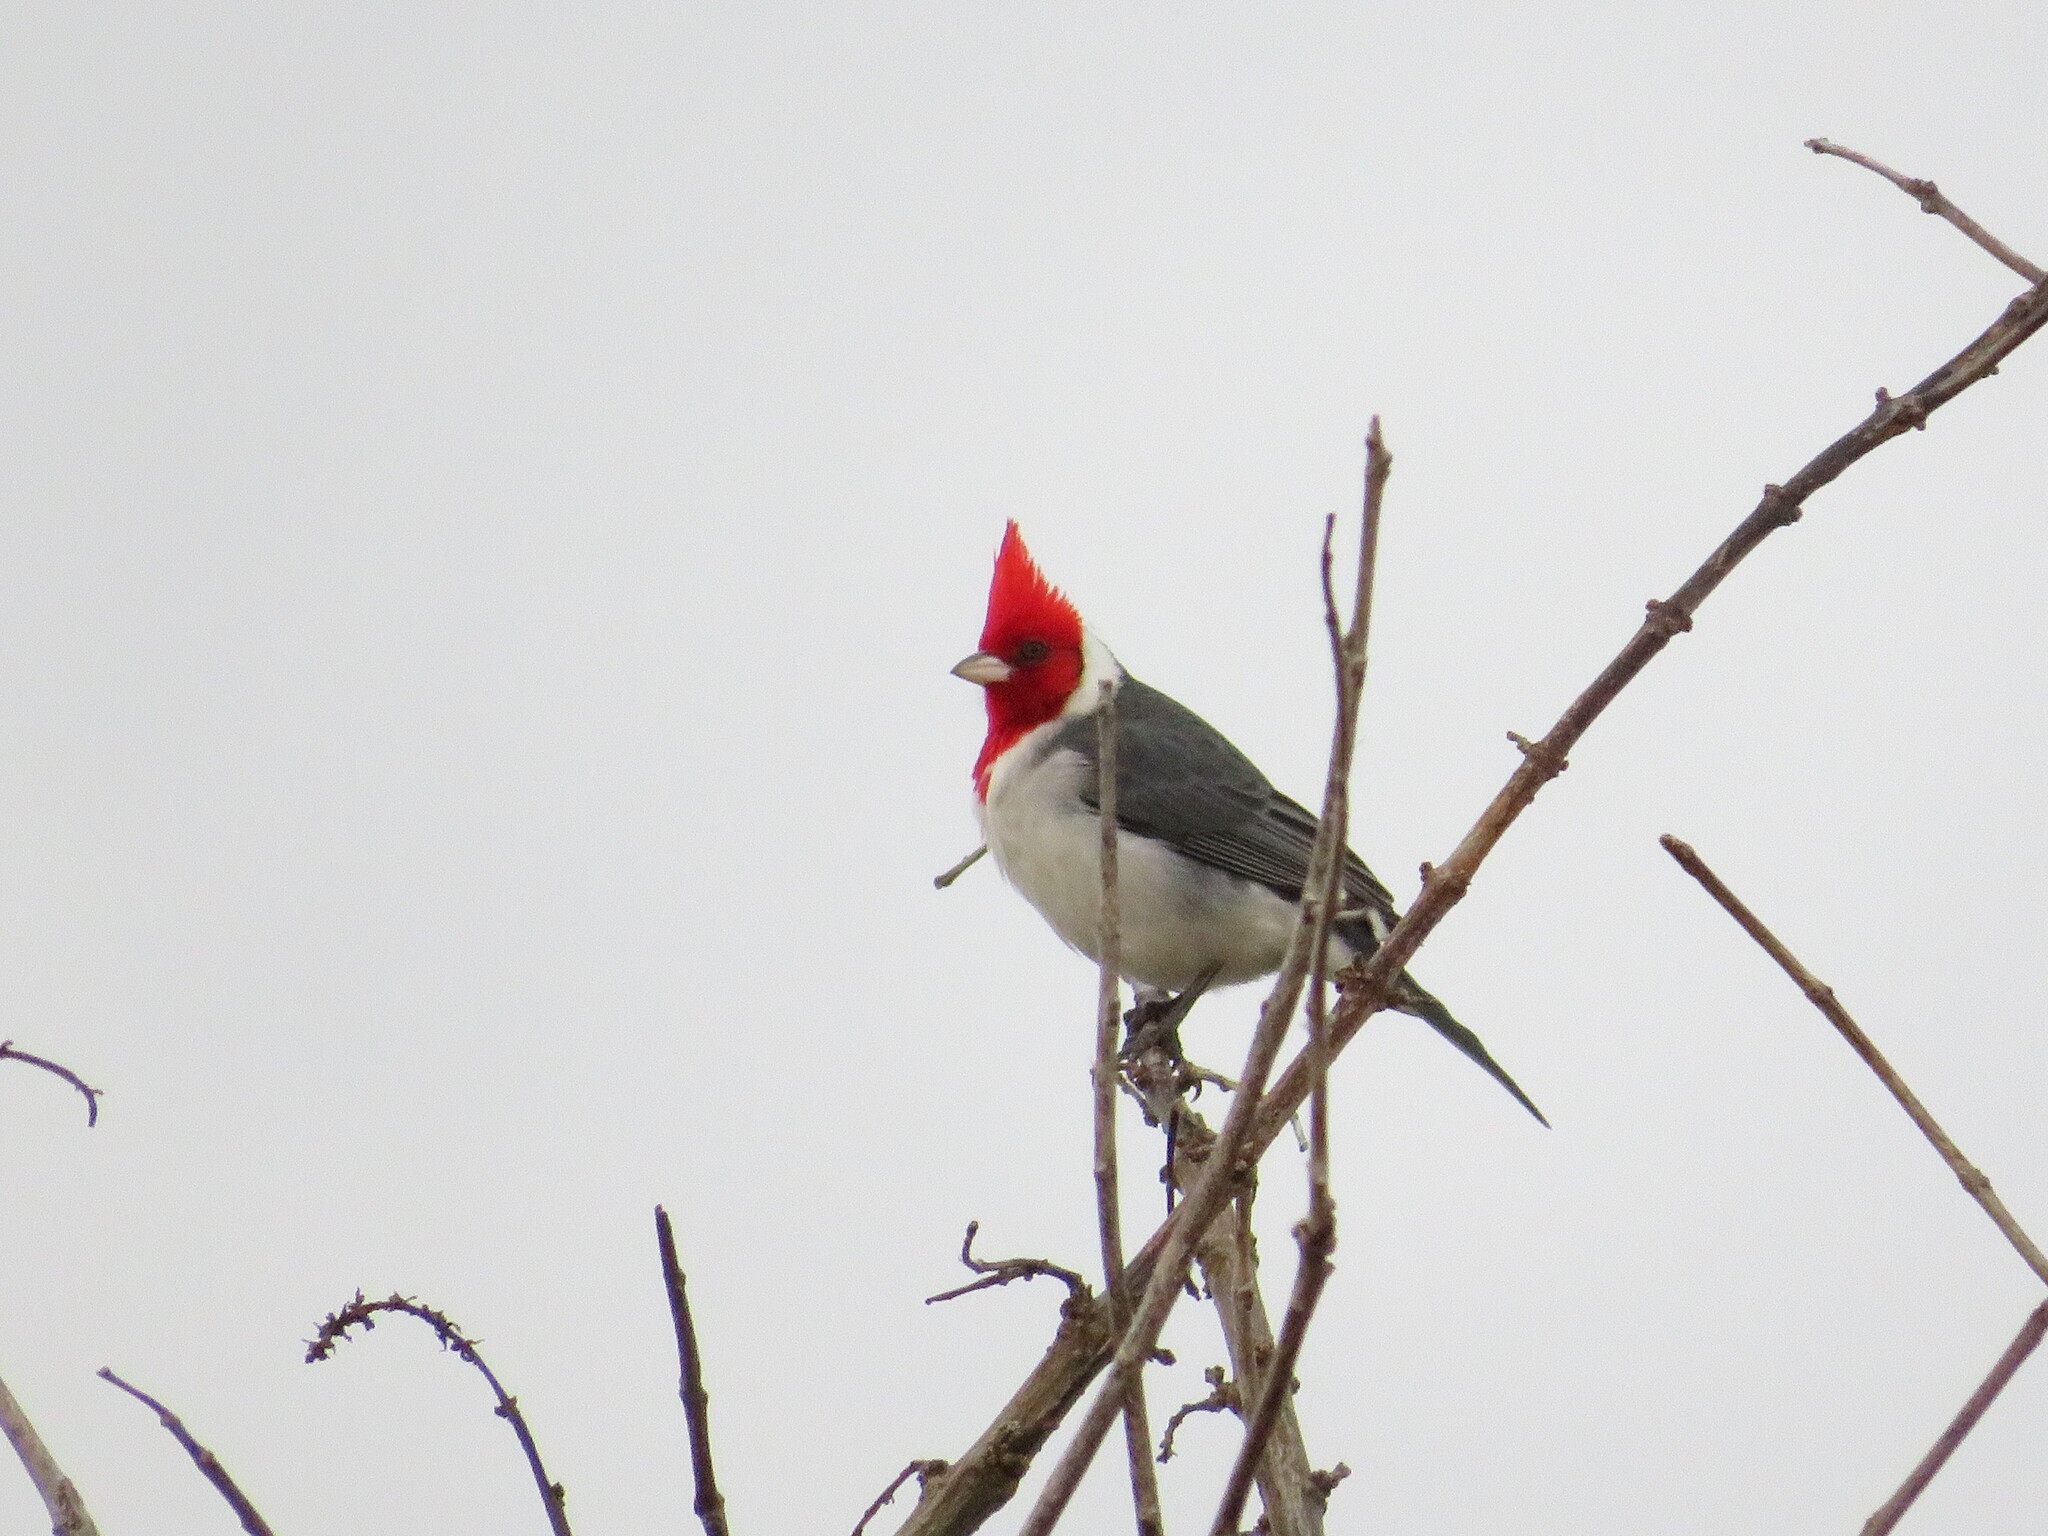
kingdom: Animalia
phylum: Chordata
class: Aves
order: Passeriformes
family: Thraupidae
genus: Paroaria
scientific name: Paroaria coronata
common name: Red-crested cardinal
